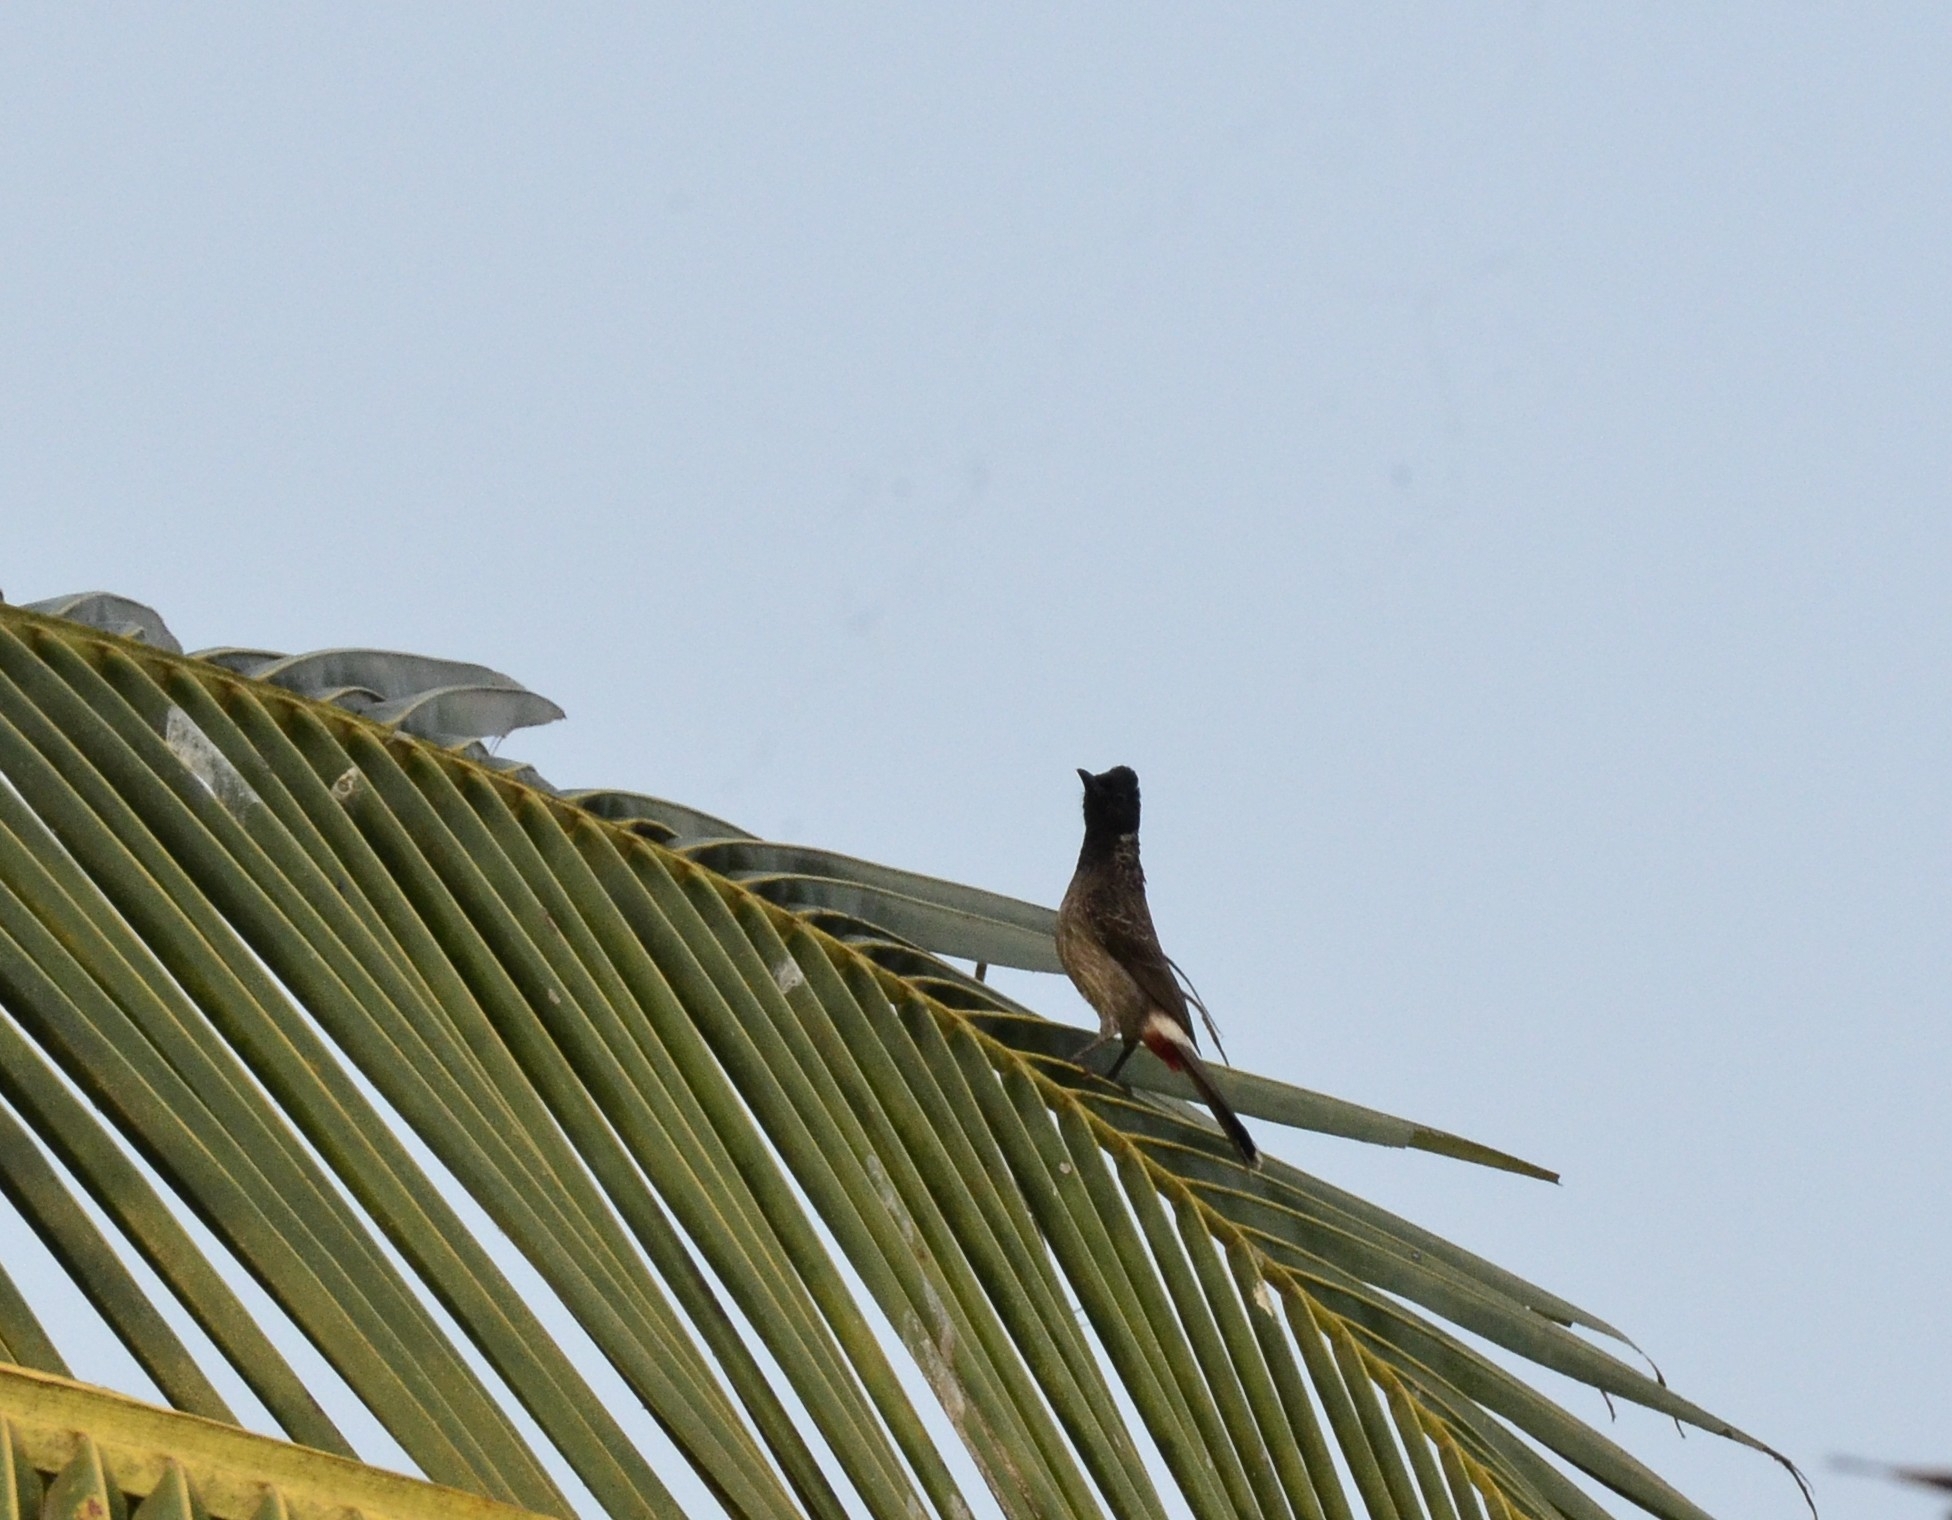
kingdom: Animalia
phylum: Chordata
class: Aves
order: Passeriformes
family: Pycnonotidae
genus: Pycnonotus
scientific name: Pycnonotus cafer
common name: Red-vented bulbul
